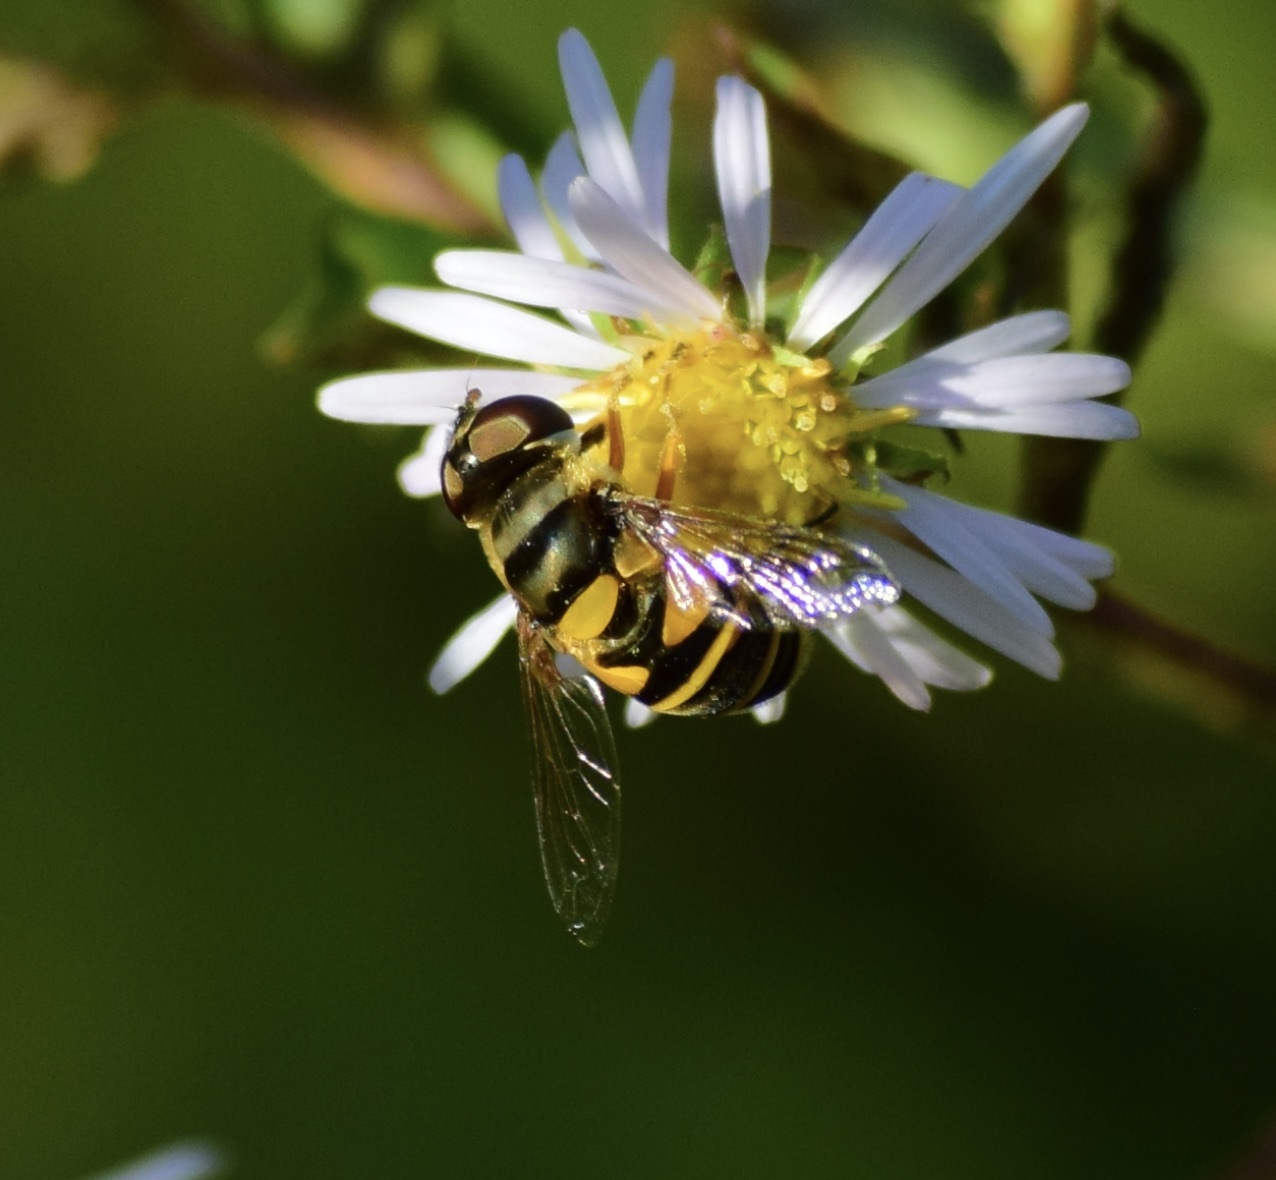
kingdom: Animalia
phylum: Arthropoda
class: Insecta
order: Diptera
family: Syrphidae
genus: Eristalis
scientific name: Eristalis transversa
